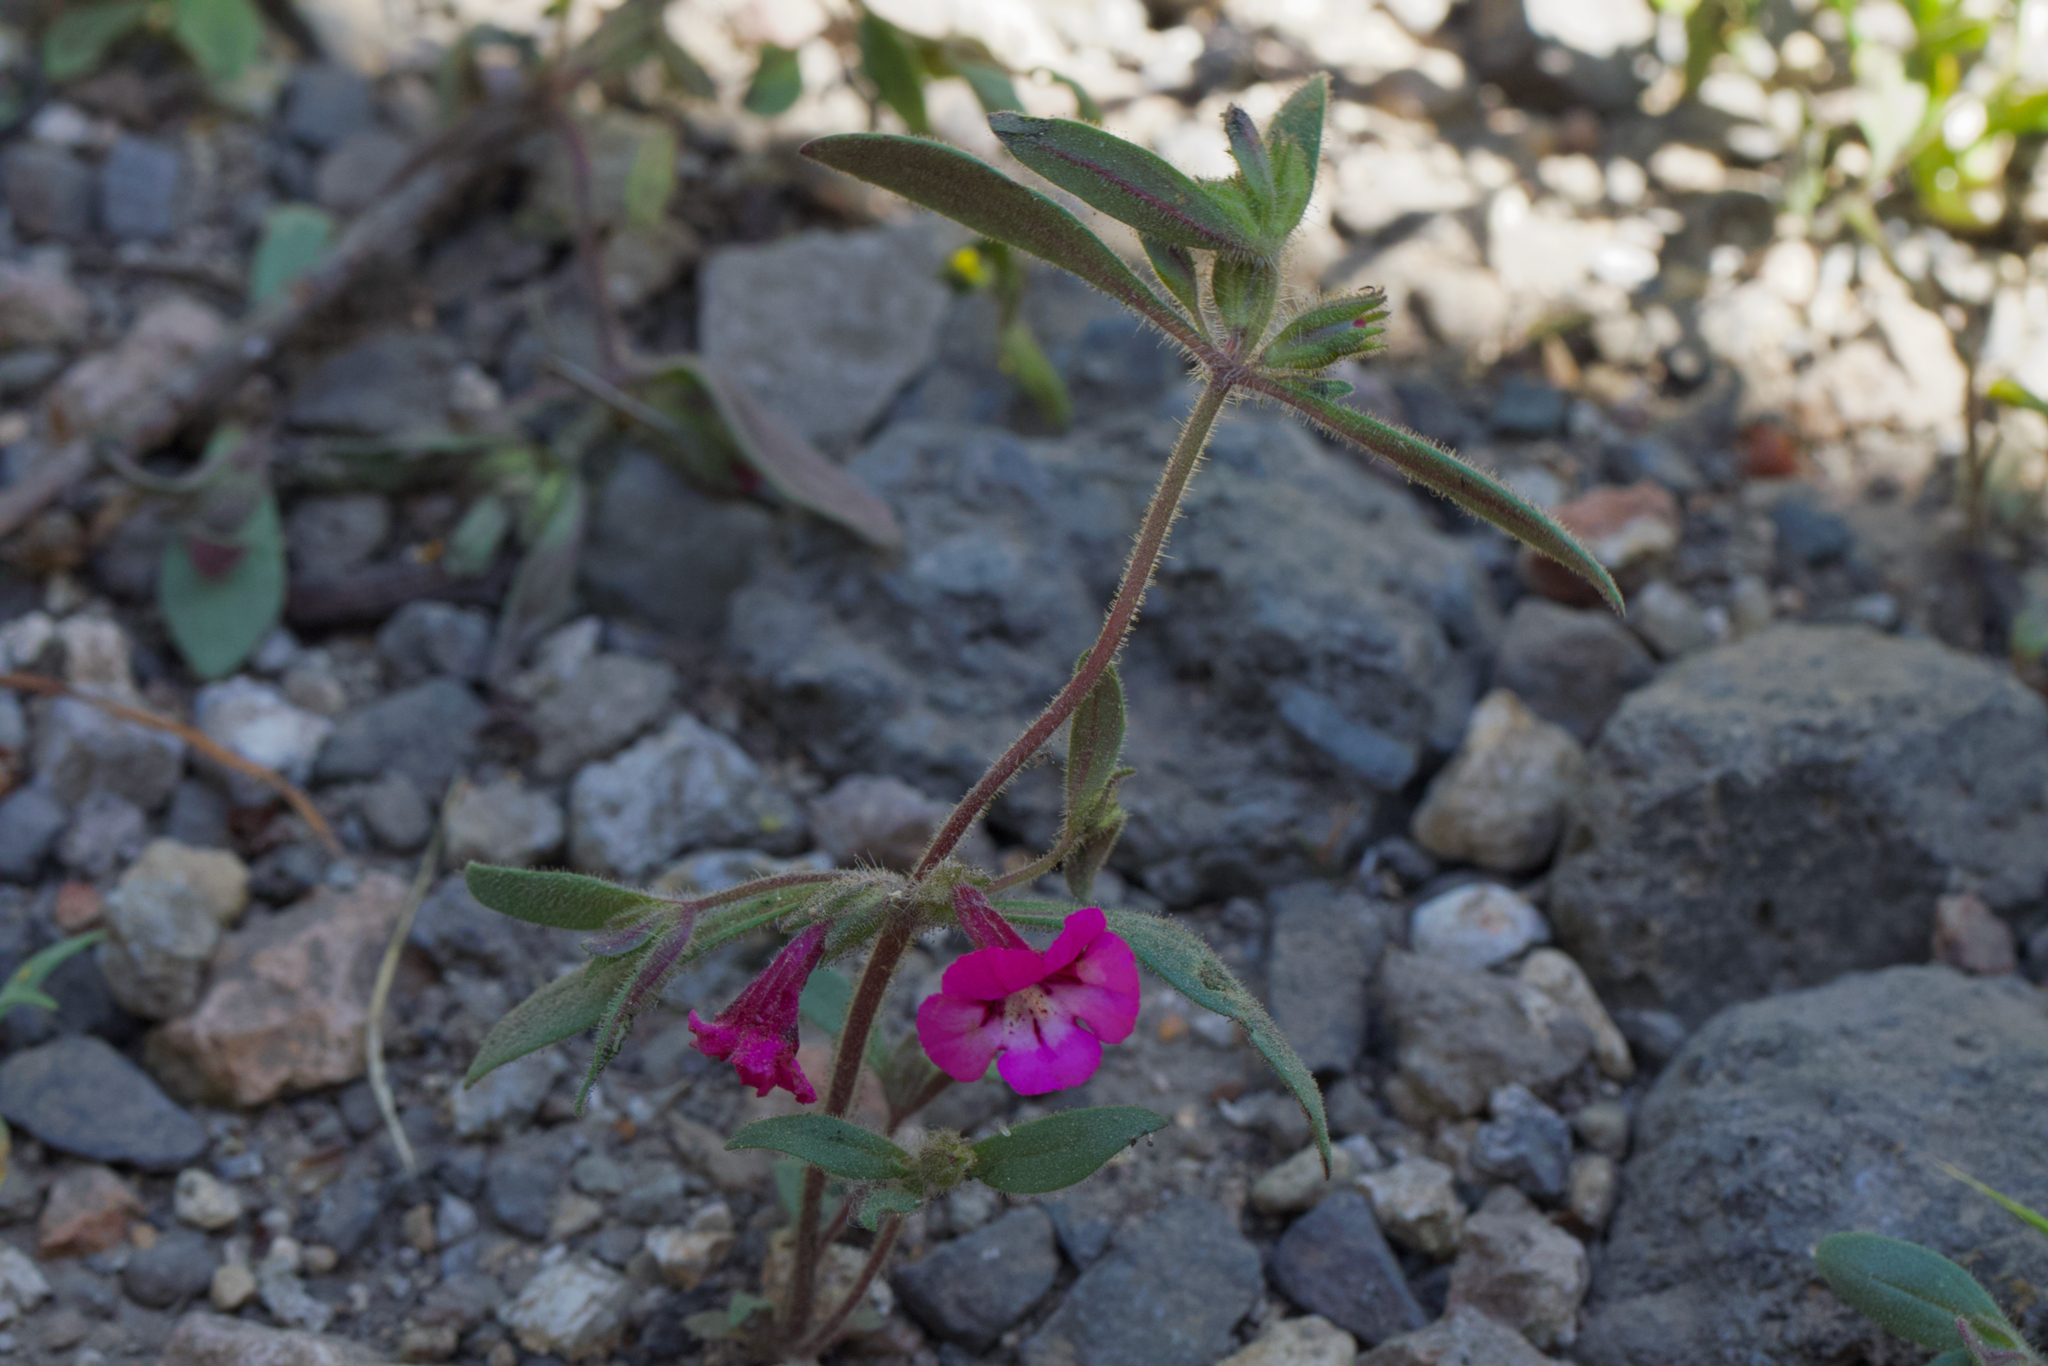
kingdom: Plantae
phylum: Tracheophyta
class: Magnoliopsida
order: Lamiales
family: Phrymaceae
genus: Diplacus
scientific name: Diplacus layneae
